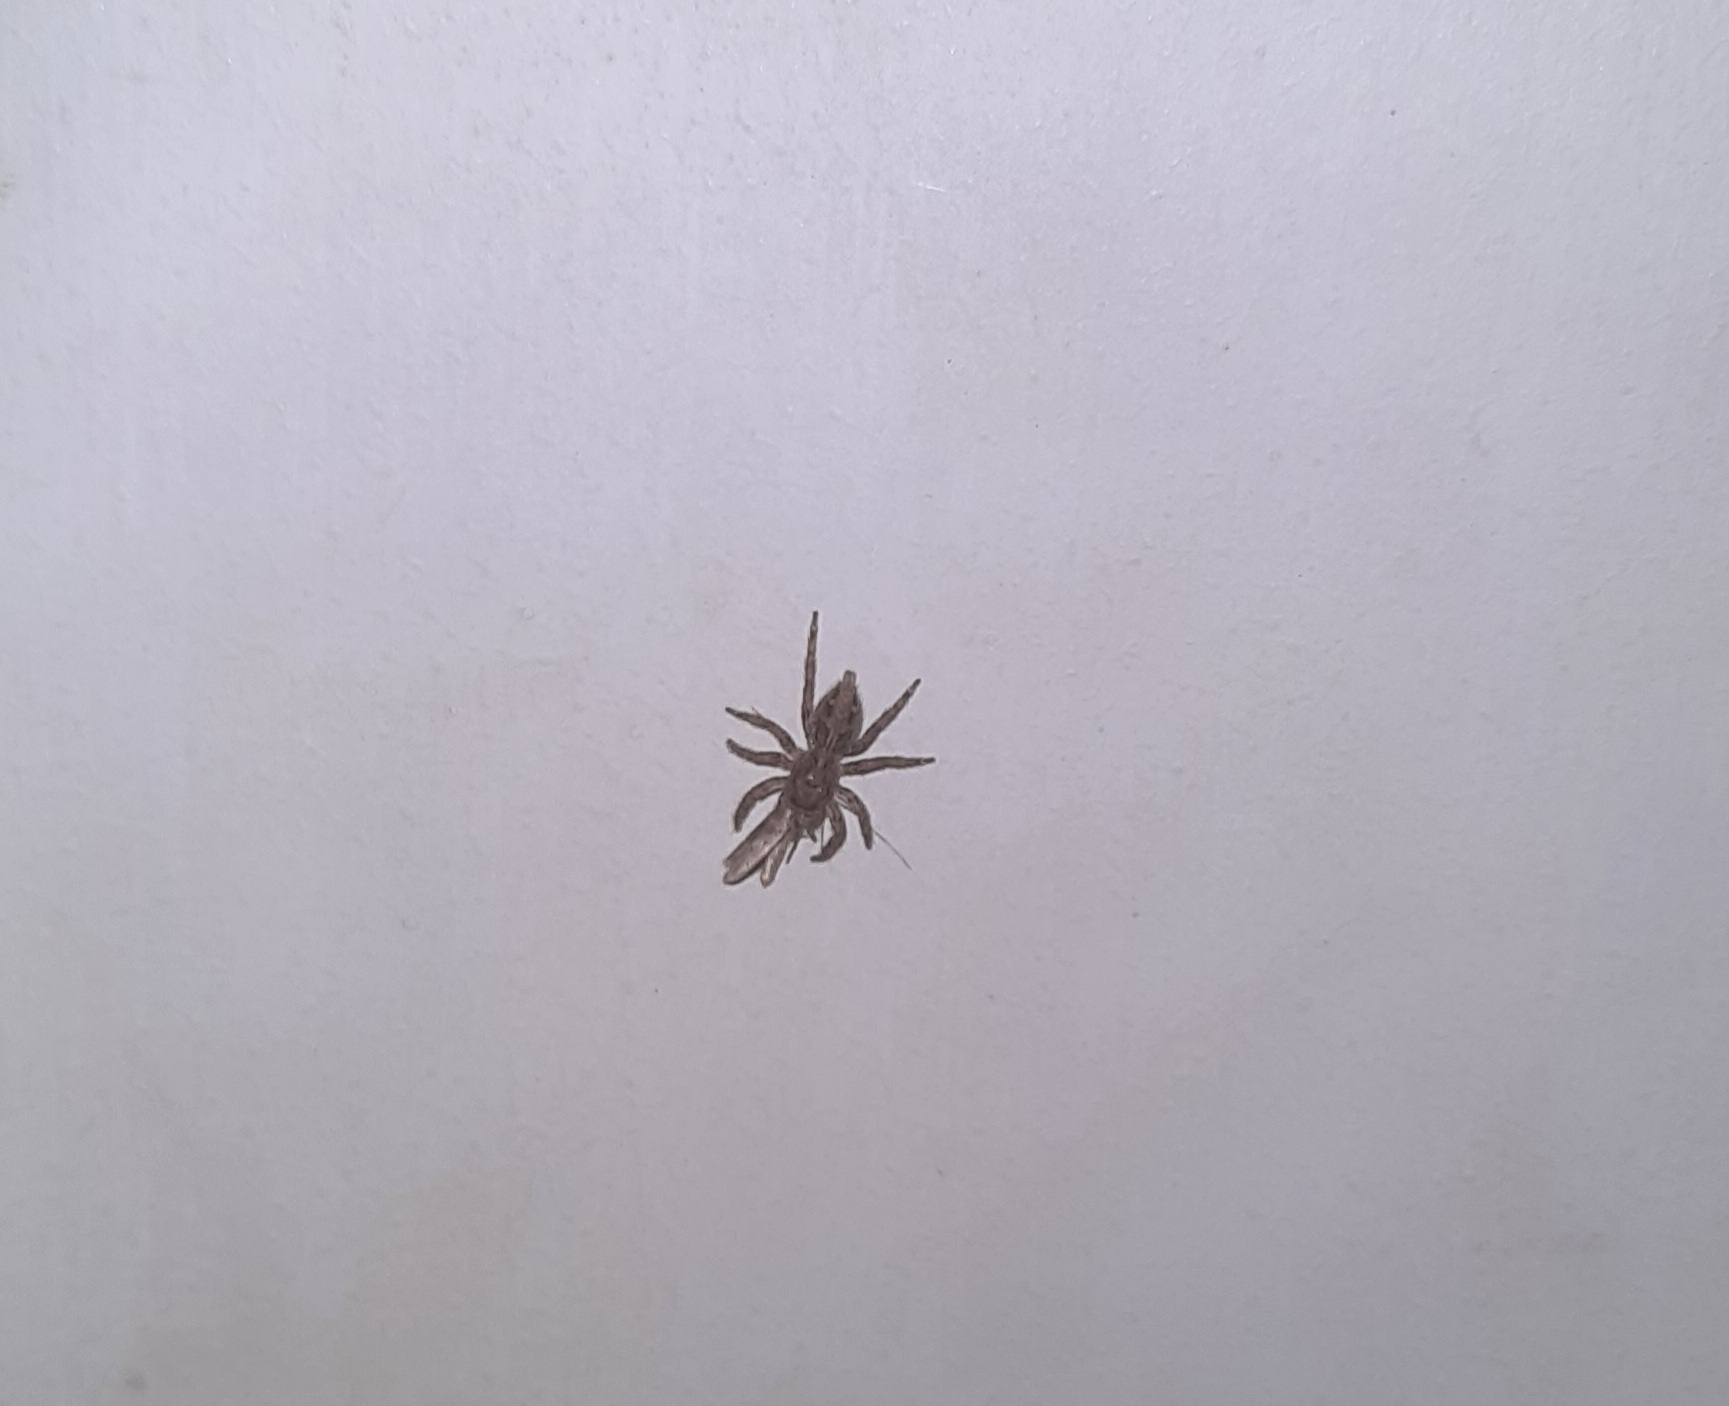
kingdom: Animalia
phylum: Arthropoda
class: Arachnida
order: Araneae
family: Salticidae
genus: Plexippus
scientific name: Plexippus paykulli
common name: Pantropical jumper
